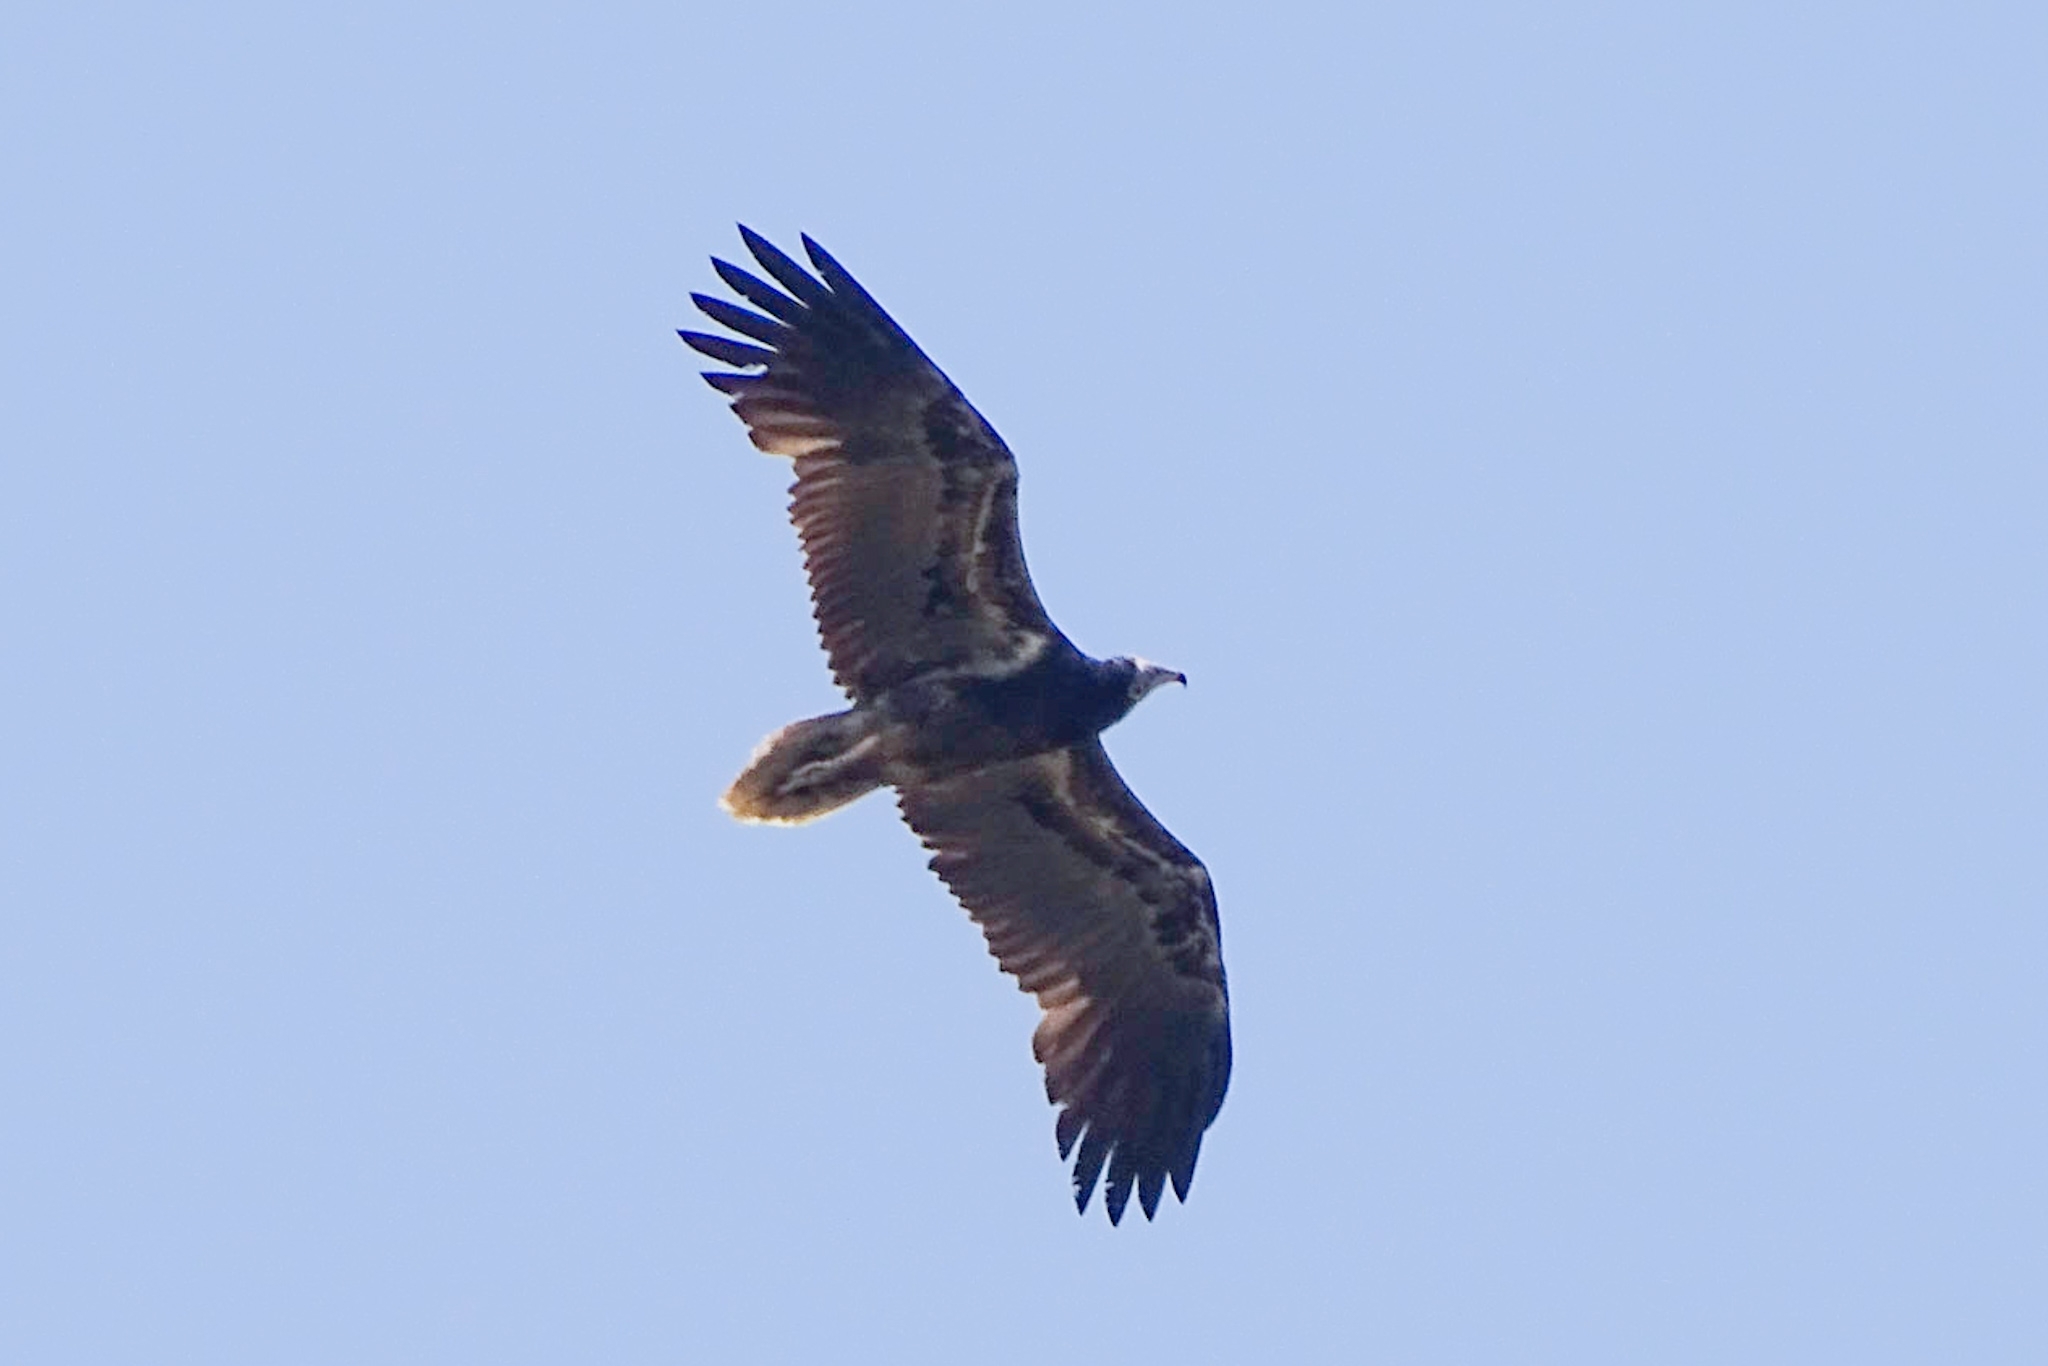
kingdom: Animalia
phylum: Chordata
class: Aves
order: Accipitriformes
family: Accipitridae
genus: Neophron
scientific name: Neophron percnopterus
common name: Egyptian vulture
